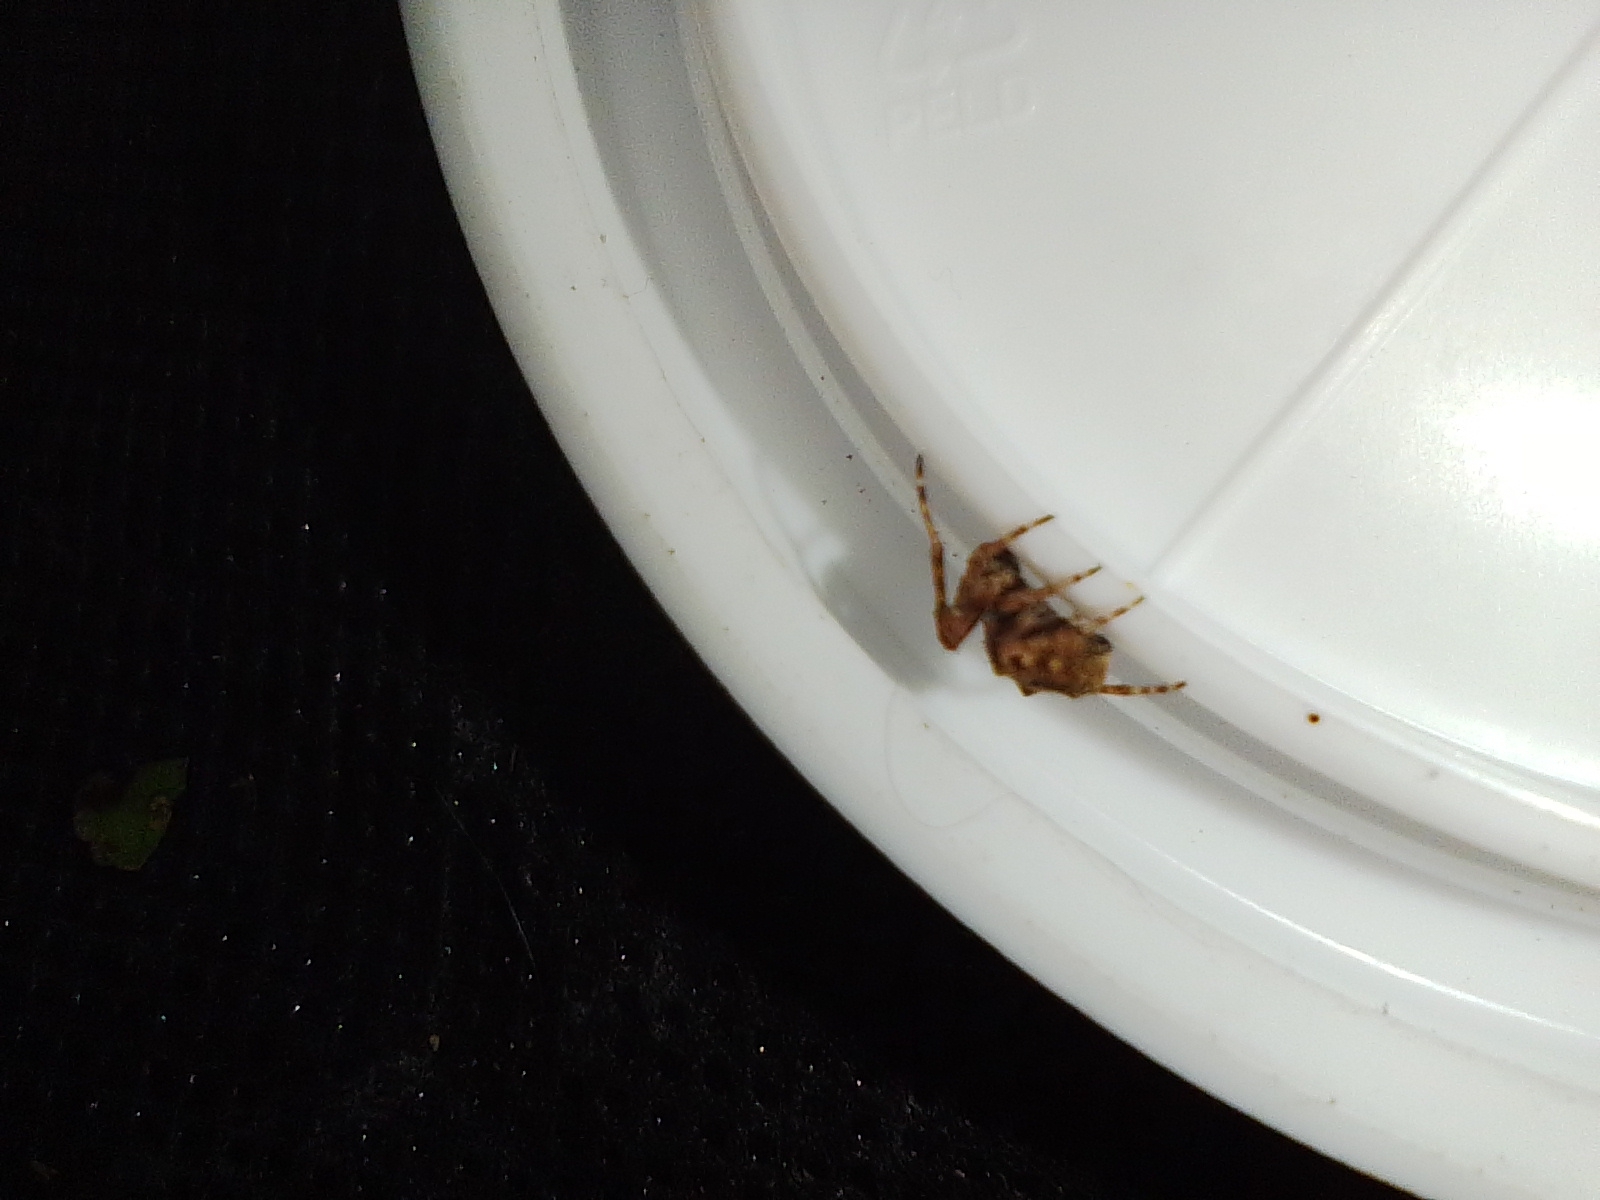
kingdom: Animalia
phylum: Arthropoda
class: Arachnida
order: Araneae
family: Araneidae
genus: Parawixia
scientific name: Parawixia audax
